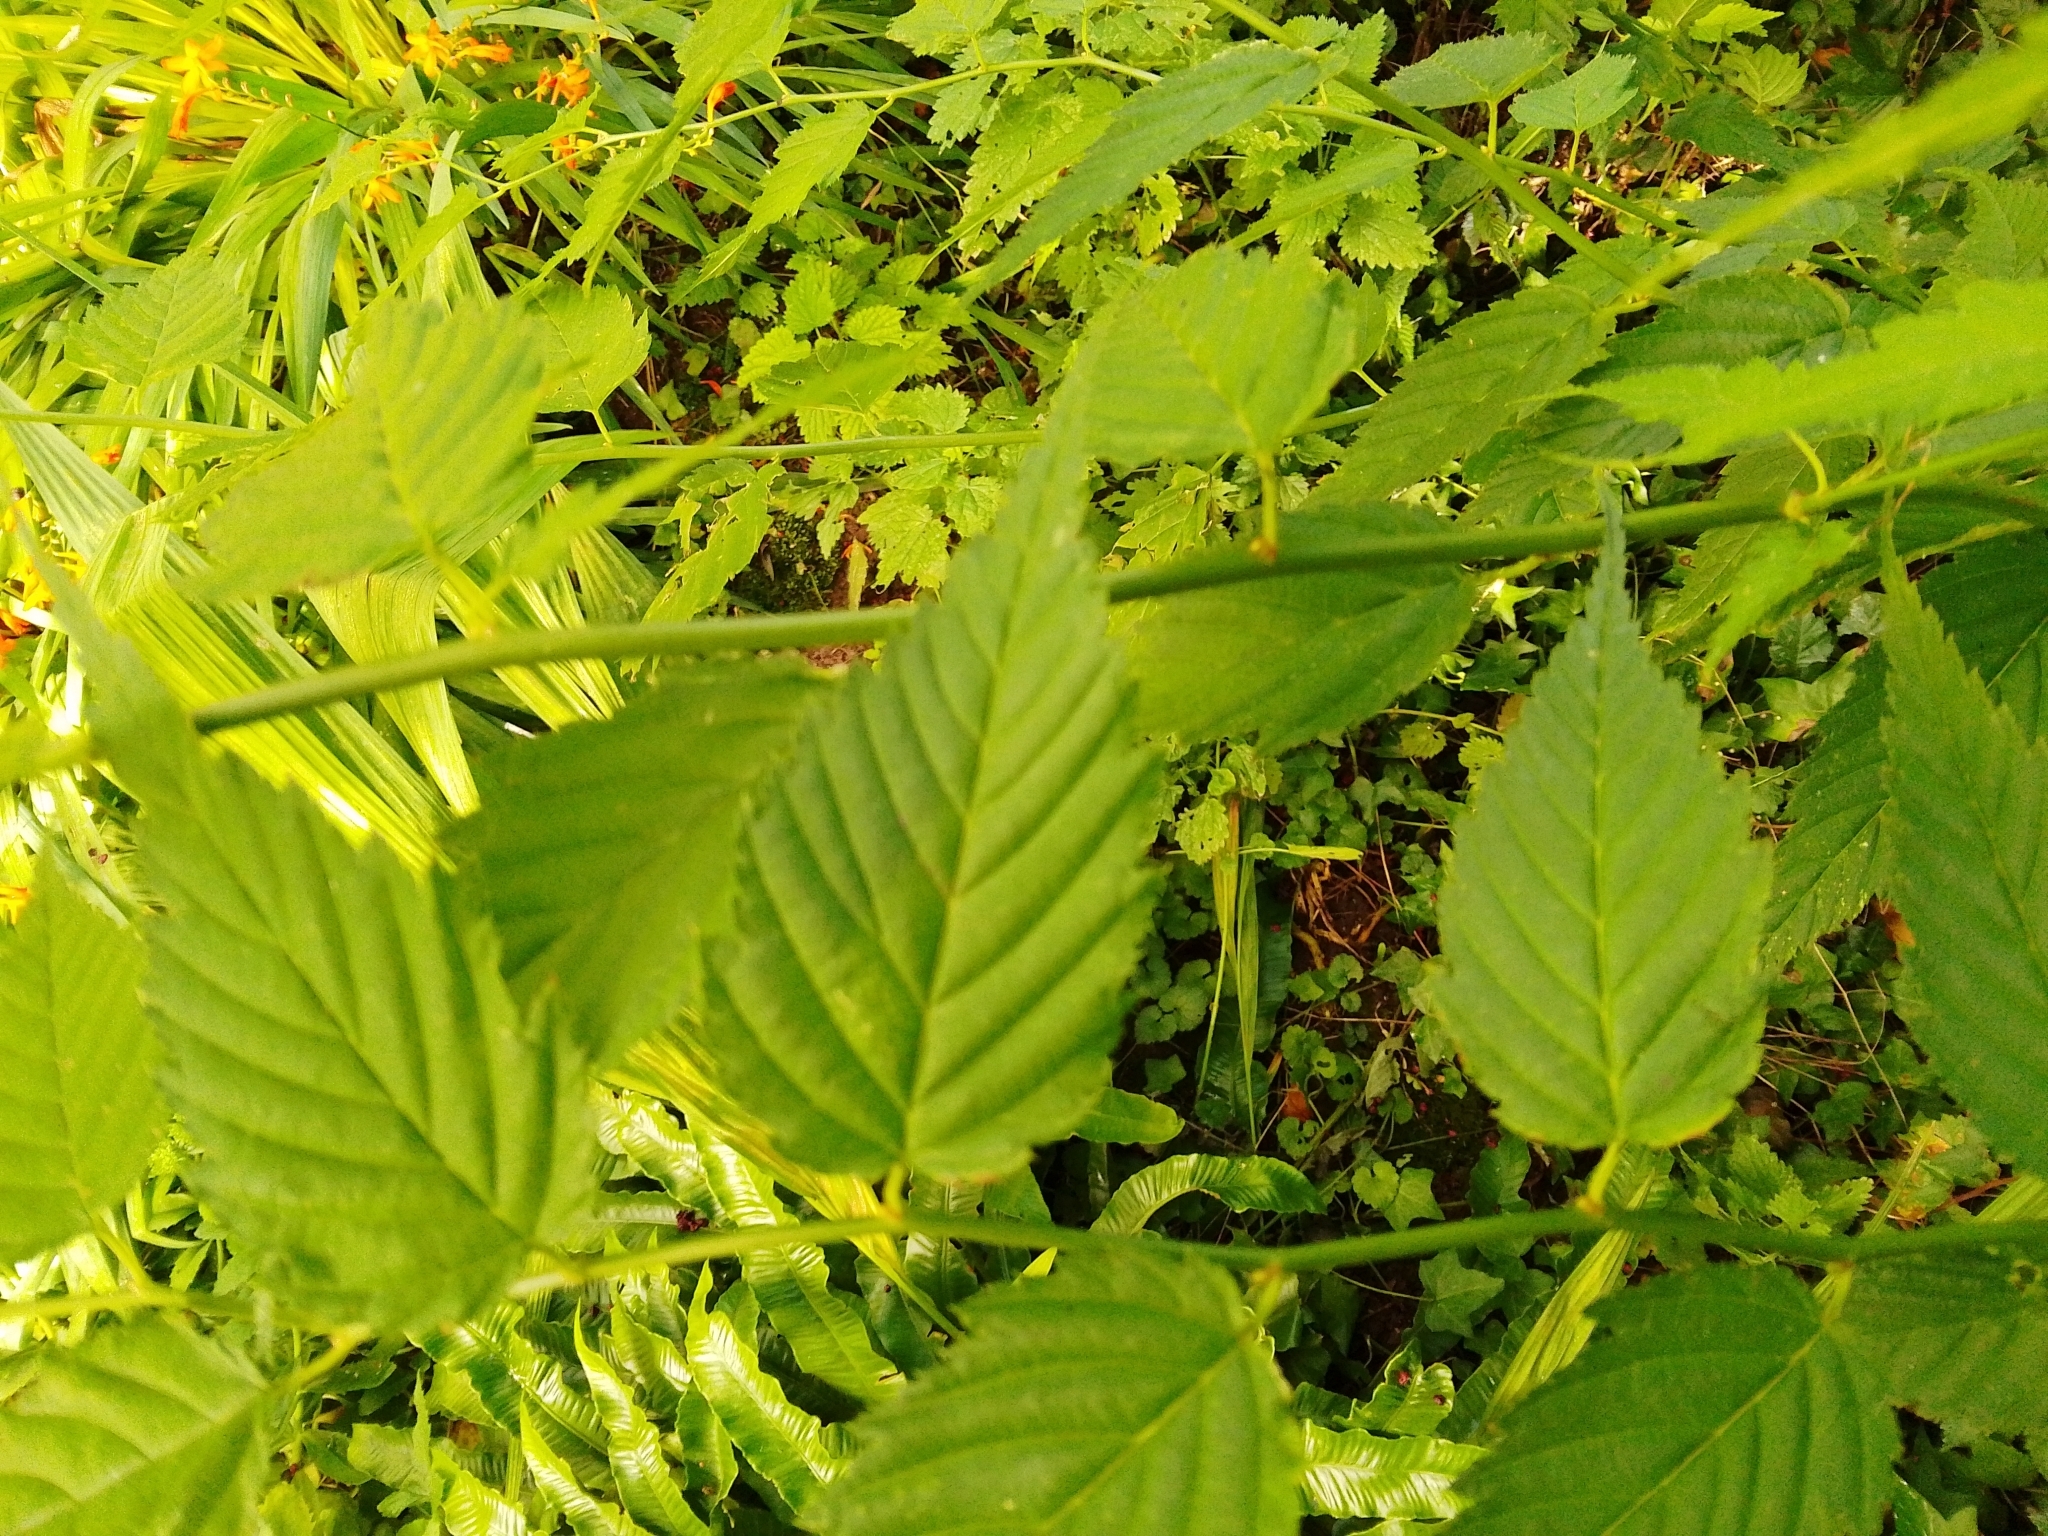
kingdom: Plantae
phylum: Tracheophyta
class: Magnoliopsida
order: Rosales
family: Rosaceae
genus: Kerria
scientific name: Kerria japonica
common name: Japanese kerria
